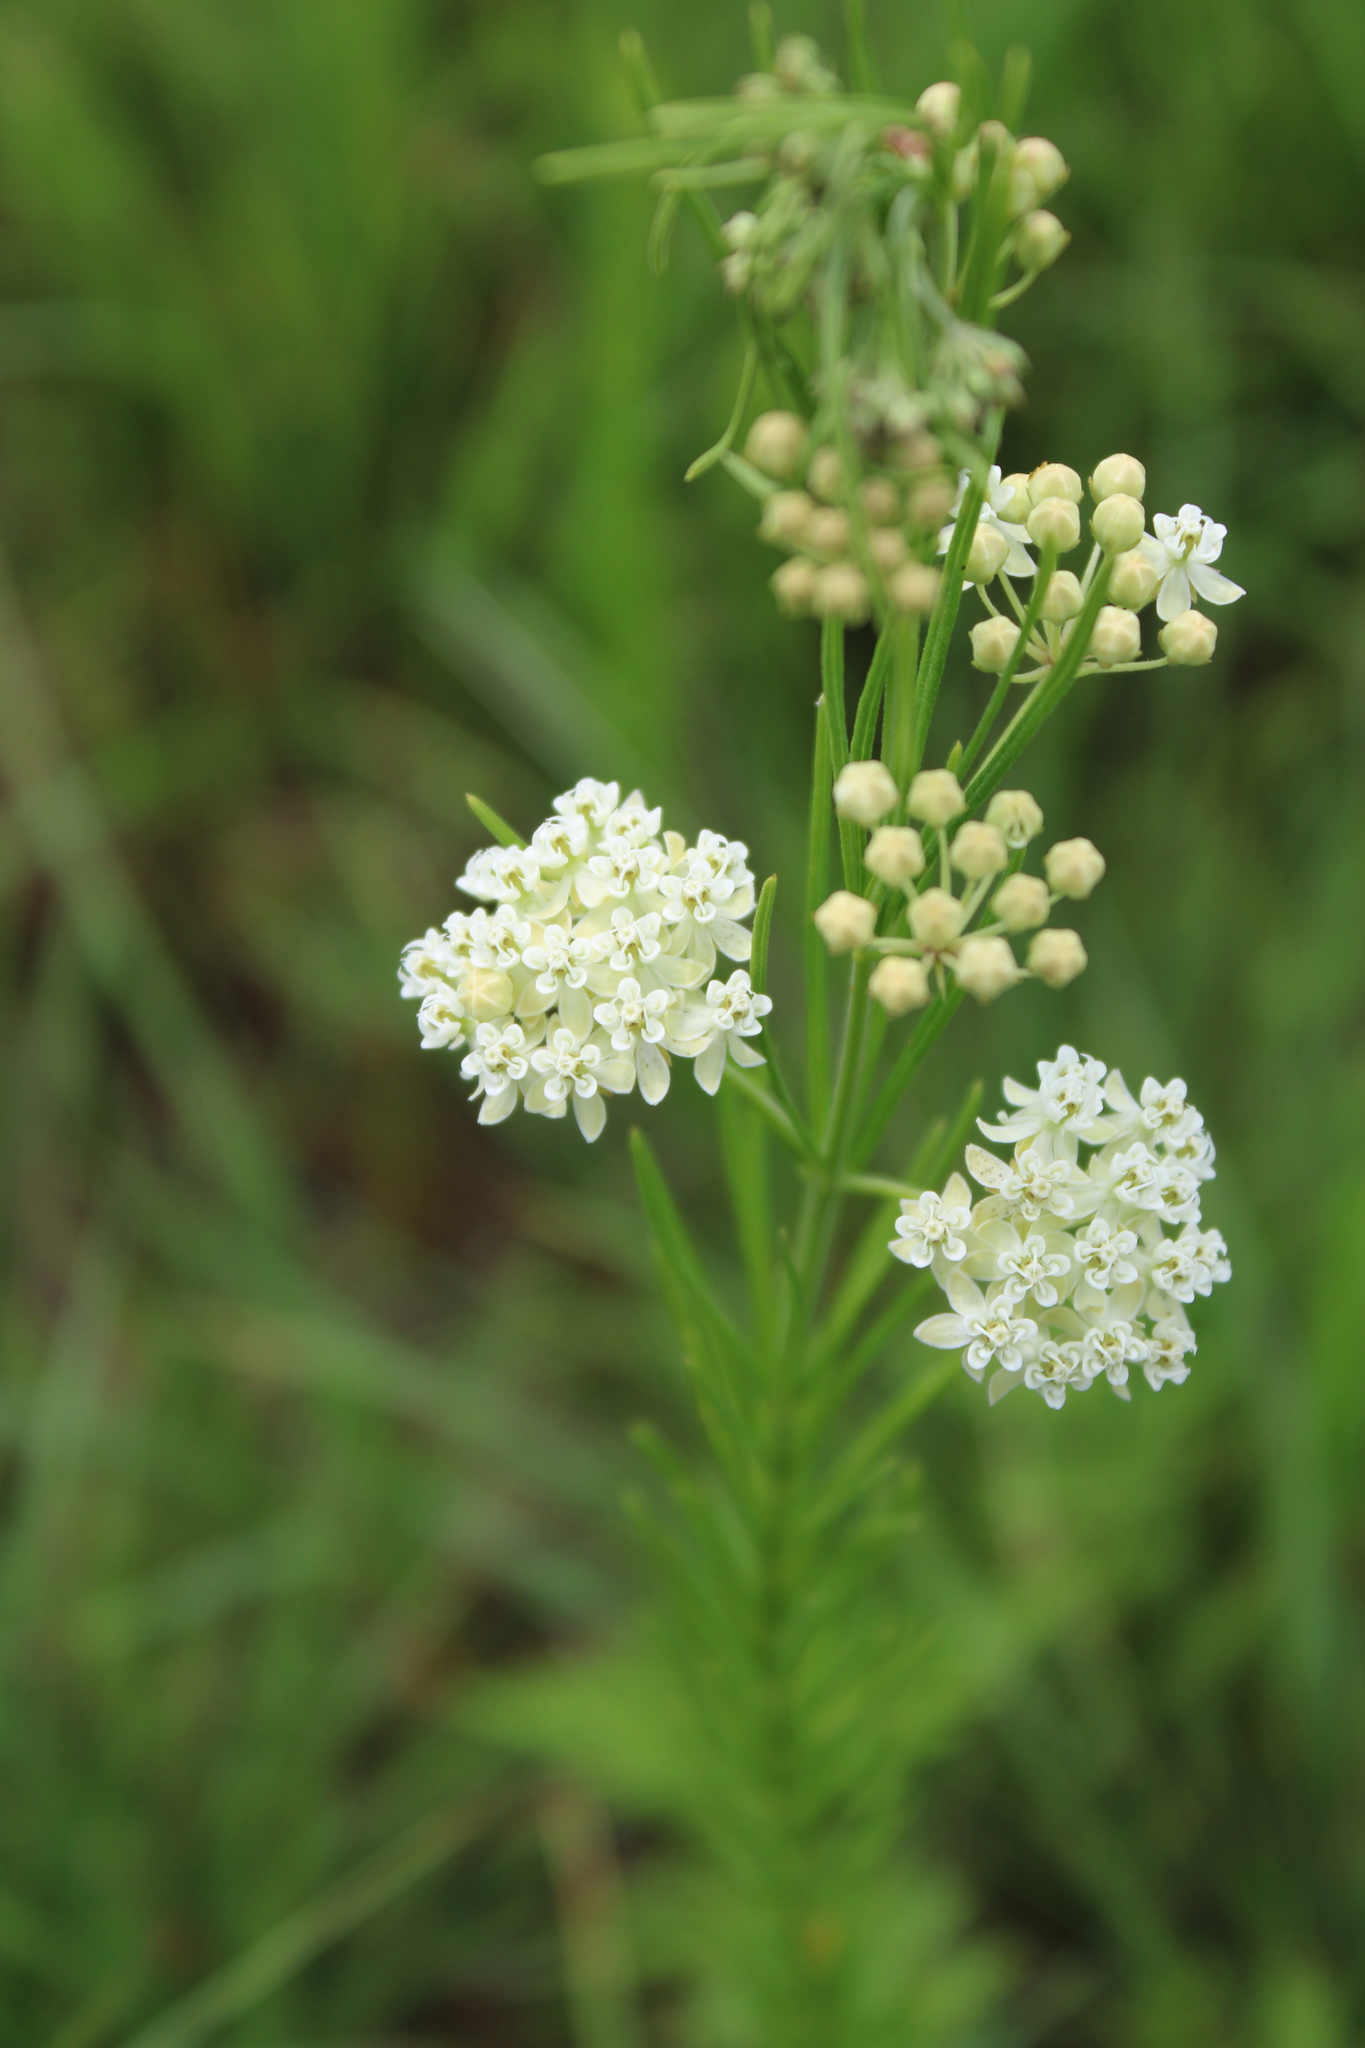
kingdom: Plantae
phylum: Tracheophyta
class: Magnoliopsida
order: Gentianales
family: Apocynaceae
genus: Asclepias
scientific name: Asclepias verticillata
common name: Eastern whorled milkweed
